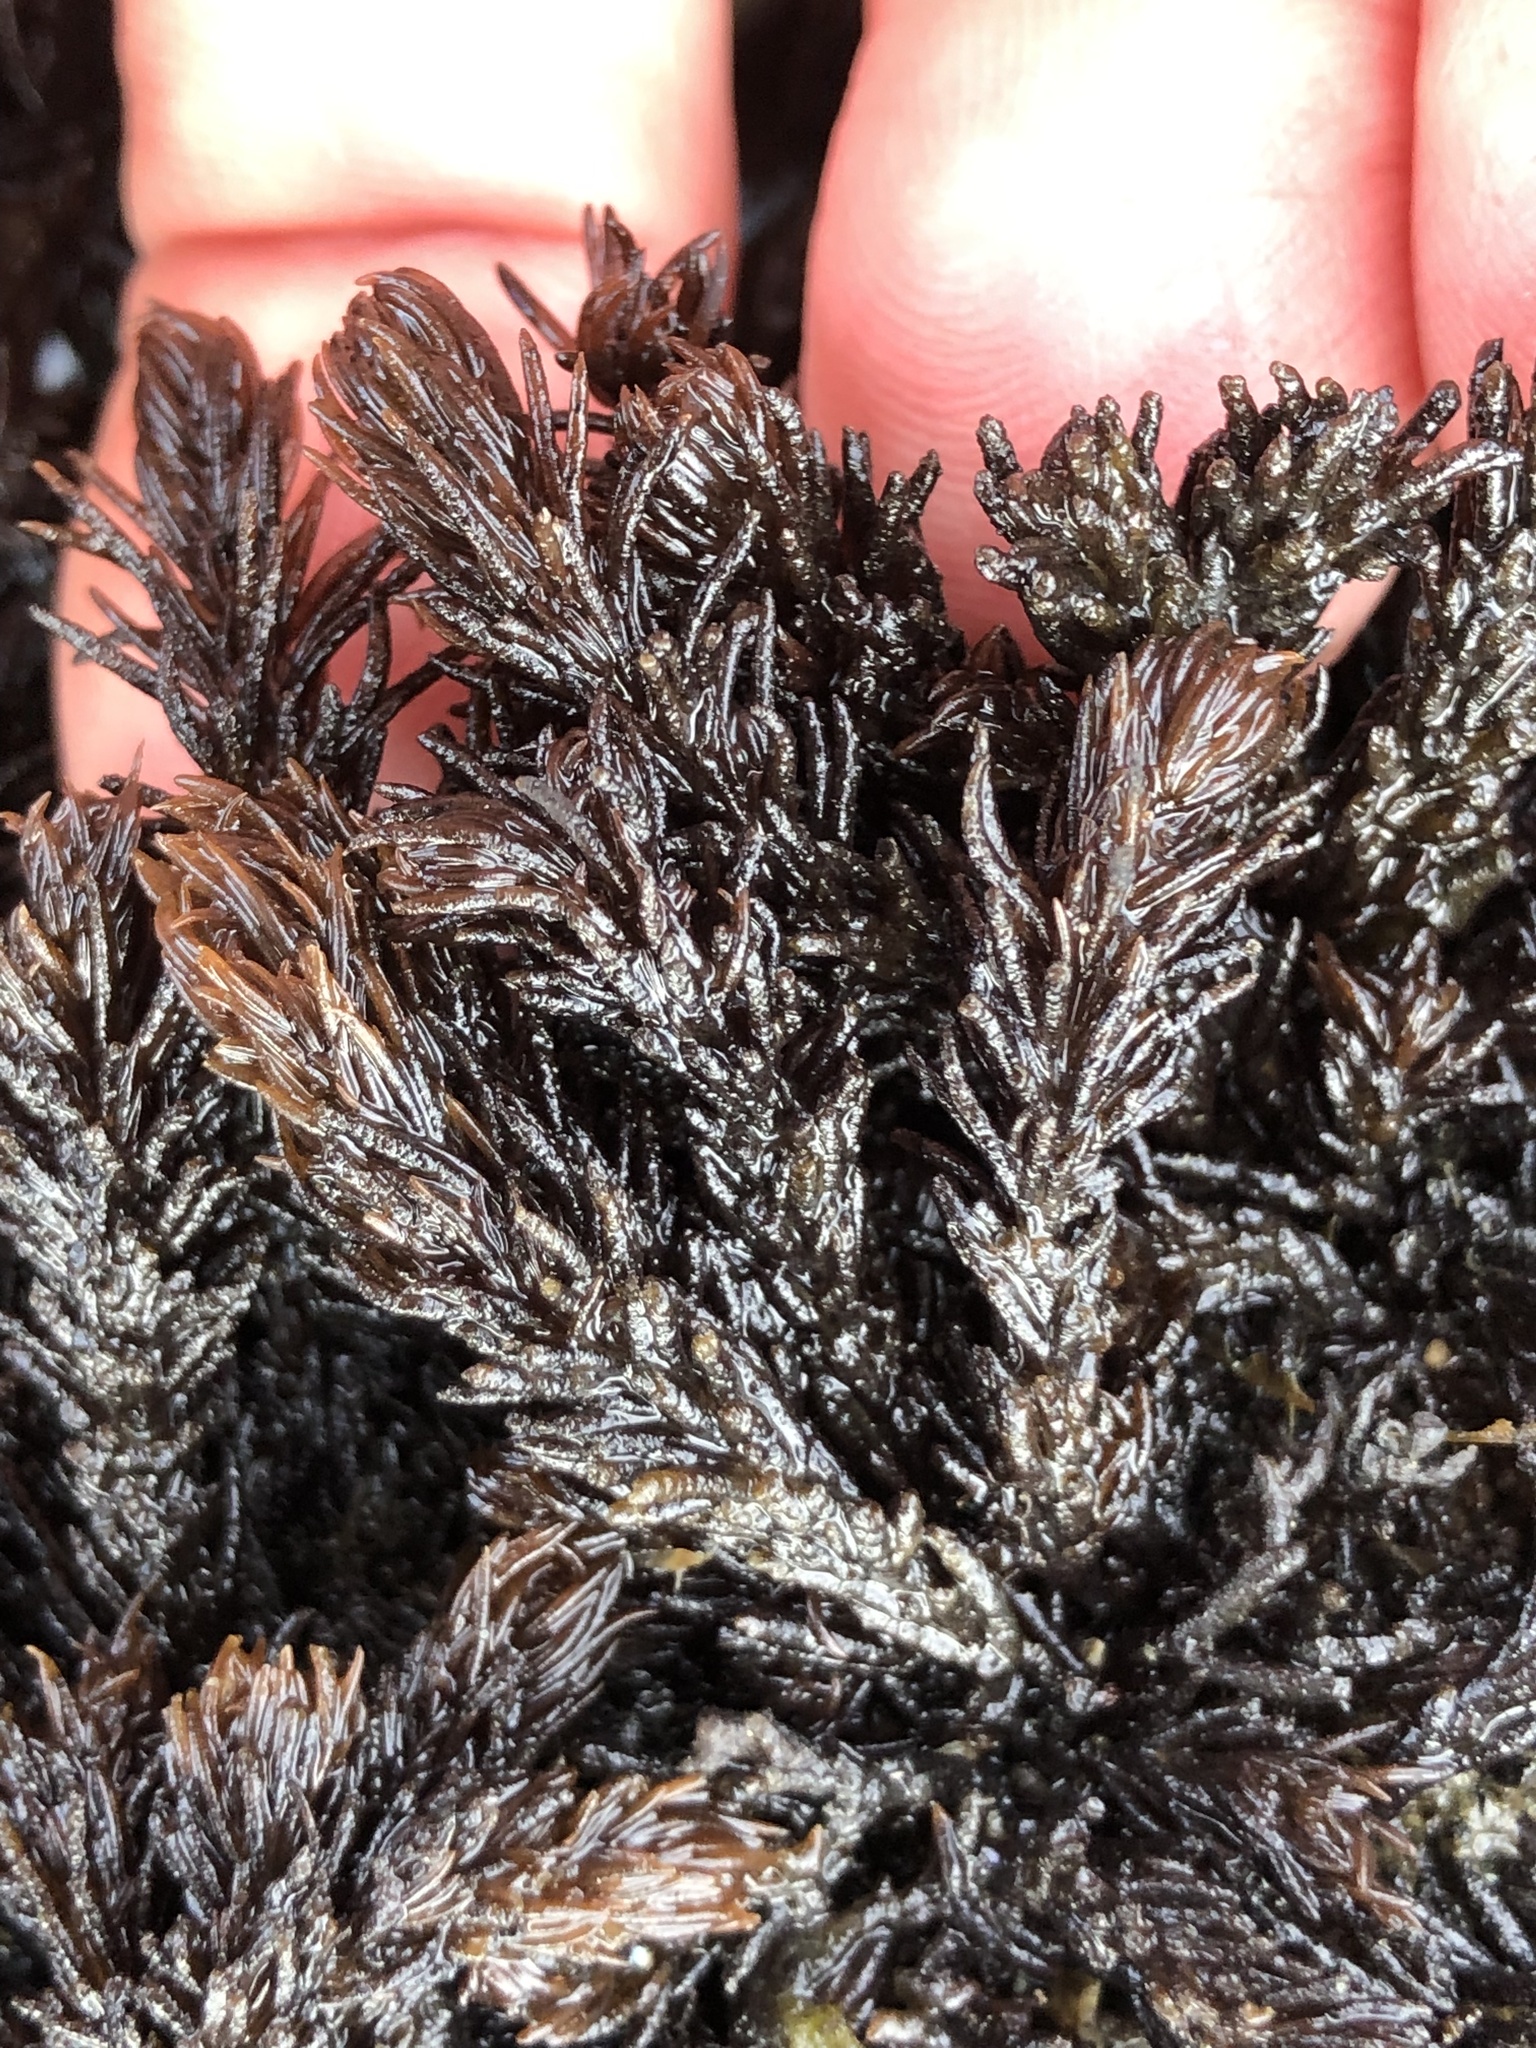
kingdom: Plantae
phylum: Rhodophyta
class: Florideophyceae
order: Ceramiales
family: Rhodomelaceae
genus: Neorhodomela
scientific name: Neorhodomela larix
